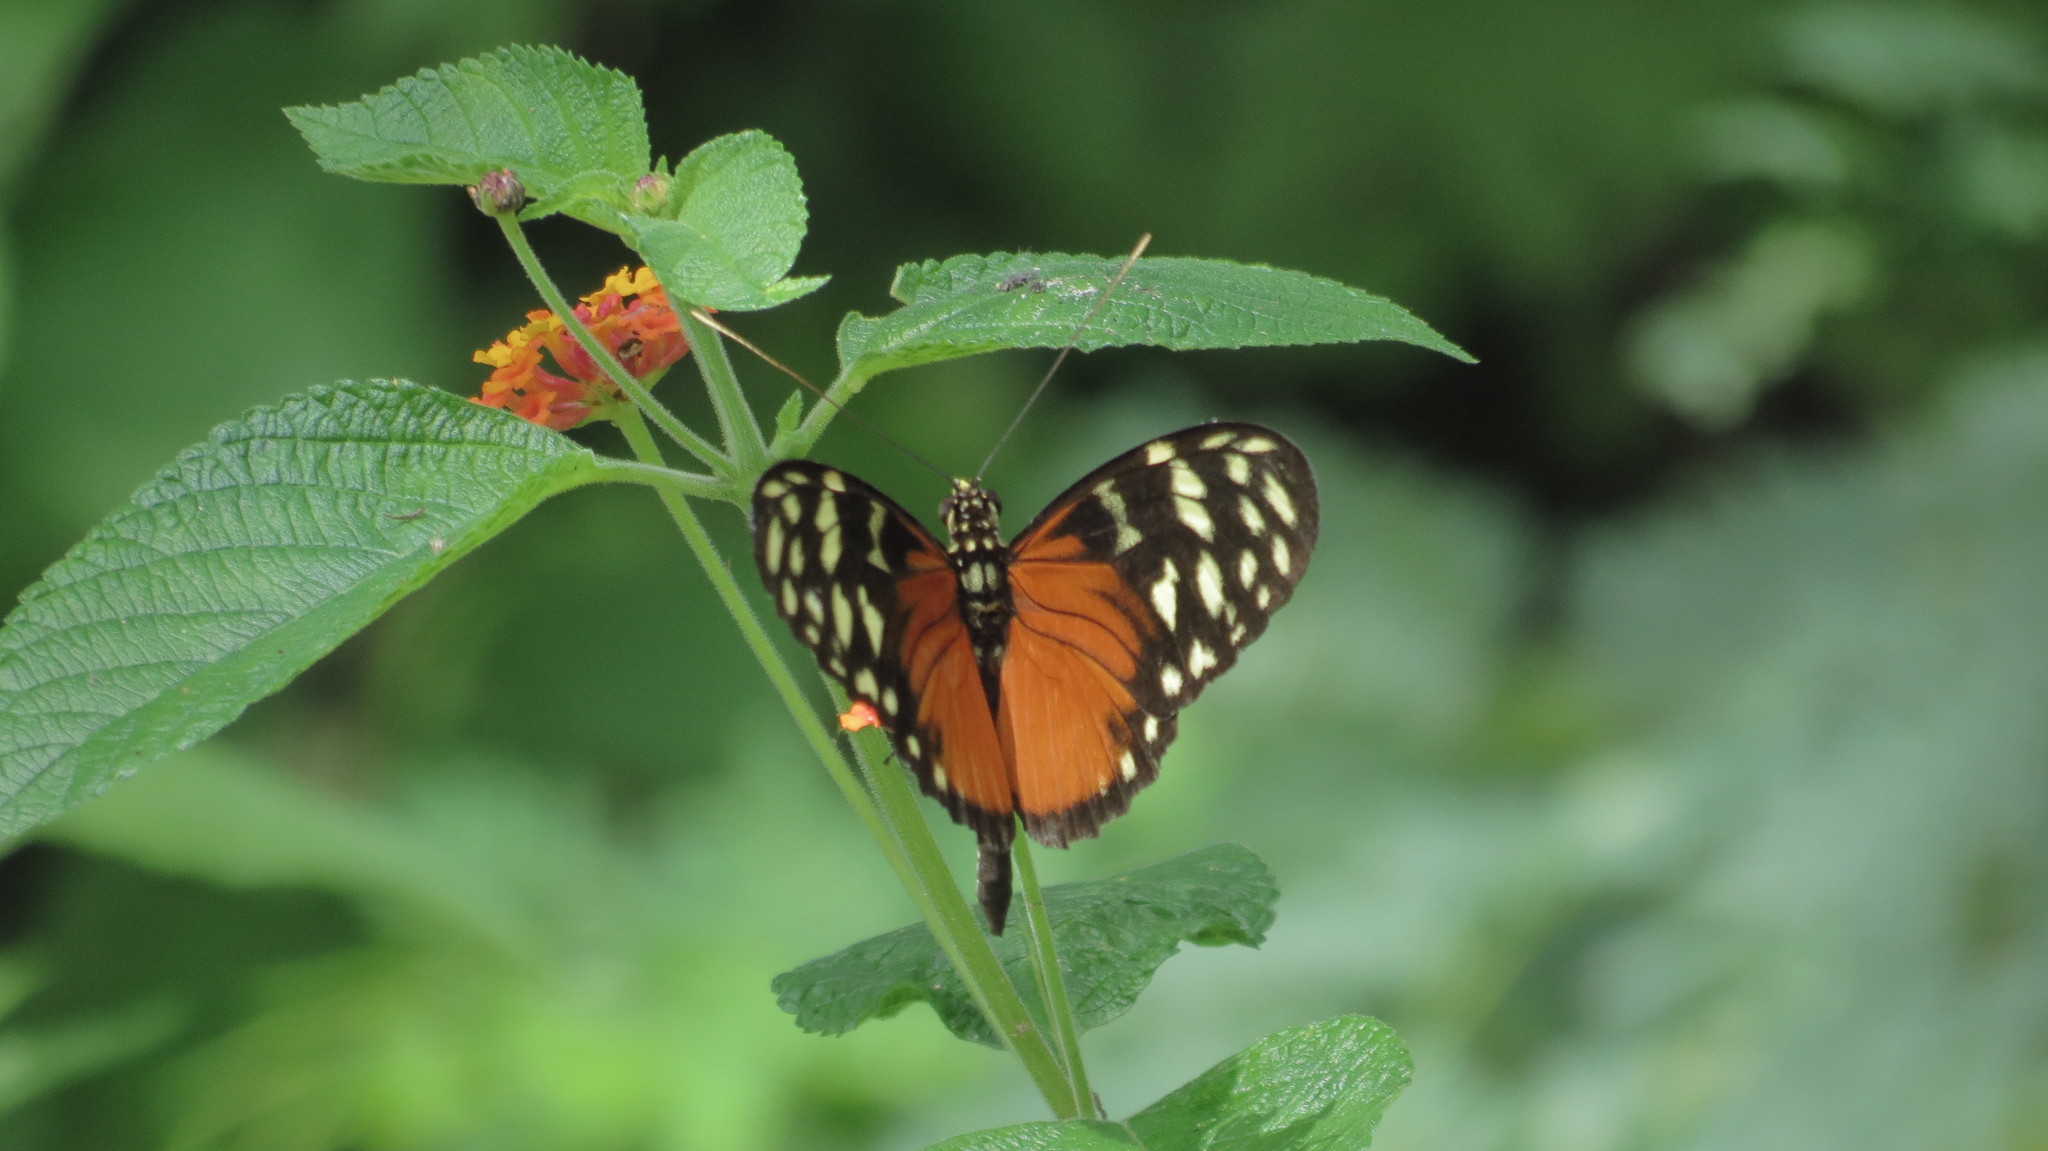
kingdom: Animalia
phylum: Arthropoda
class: Insecta
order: Lepidoptera
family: Nymphalidae
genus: Heliconius
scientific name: Heliconius hecale
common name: Tiger longwing
